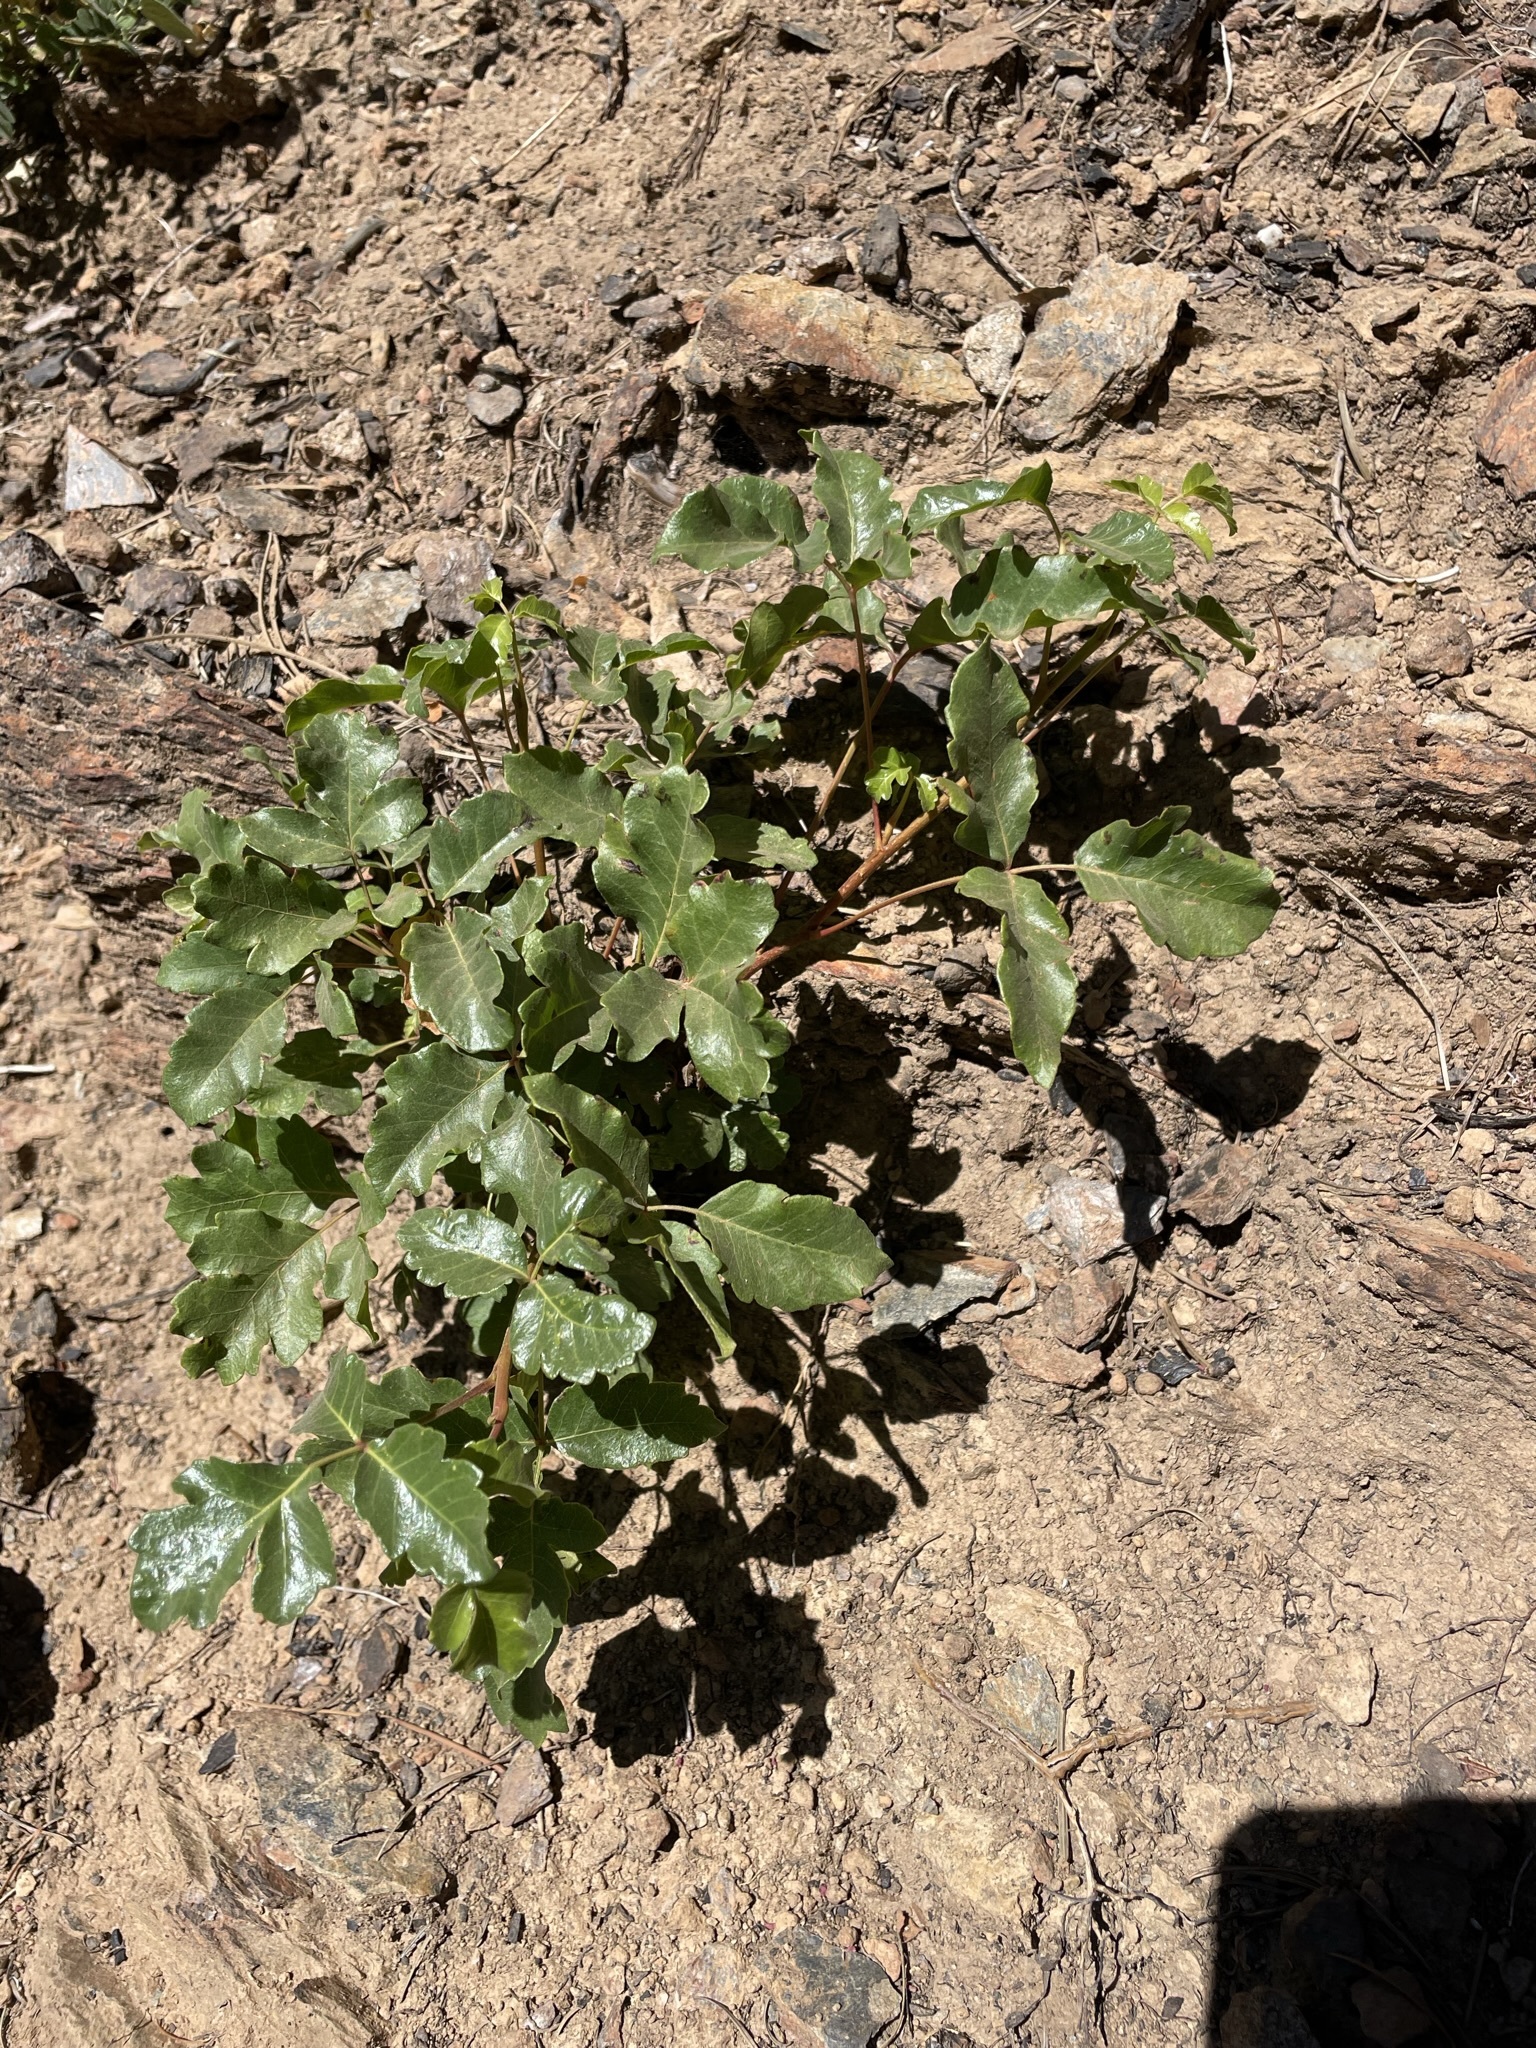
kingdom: Plantae
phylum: Tracheophyta
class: Magnoliopsida
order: Sapindales
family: Anacardiaceae
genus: Toxicodendron
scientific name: Toxicodendron diversilobum
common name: Pacific poison-oak
